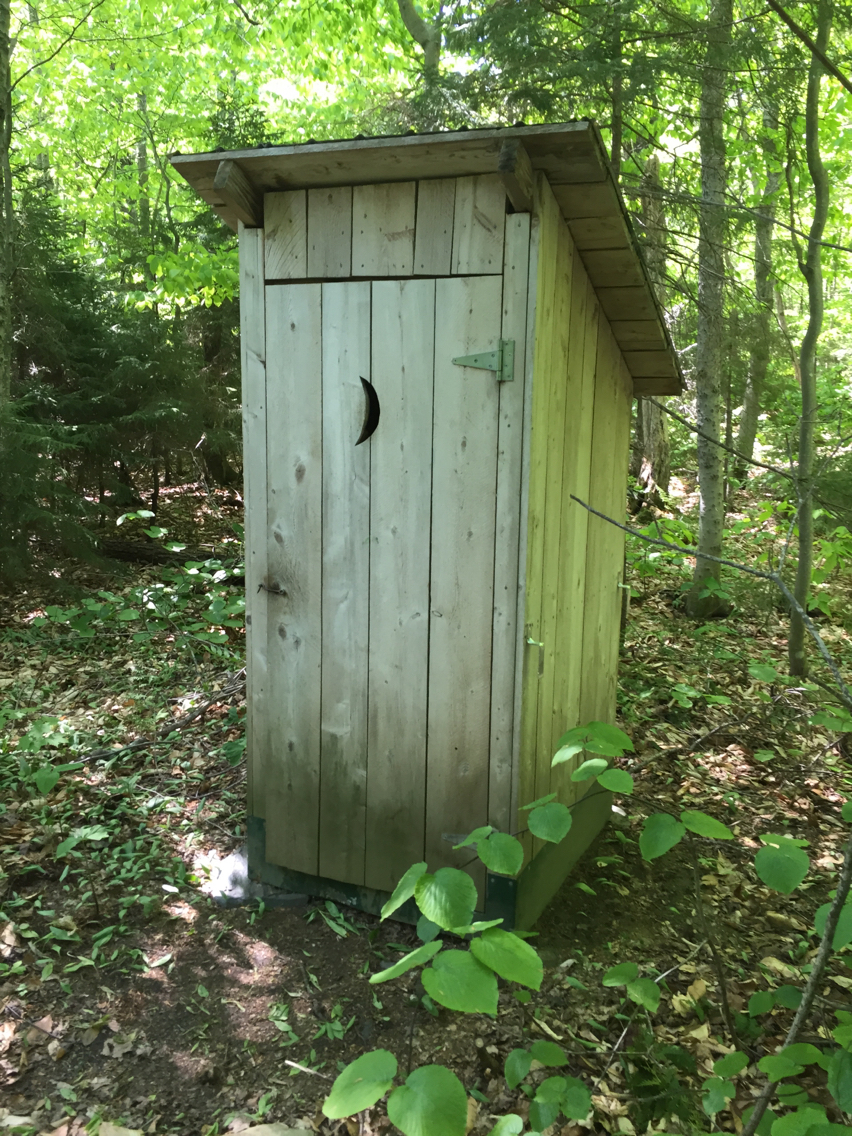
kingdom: Plantae
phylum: Tracheophyta
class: Magnoliopsida
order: Dipsacales
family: Viburnaceae
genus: Viburnum
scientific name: Viburnum lantanoides
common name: Hobblebush
